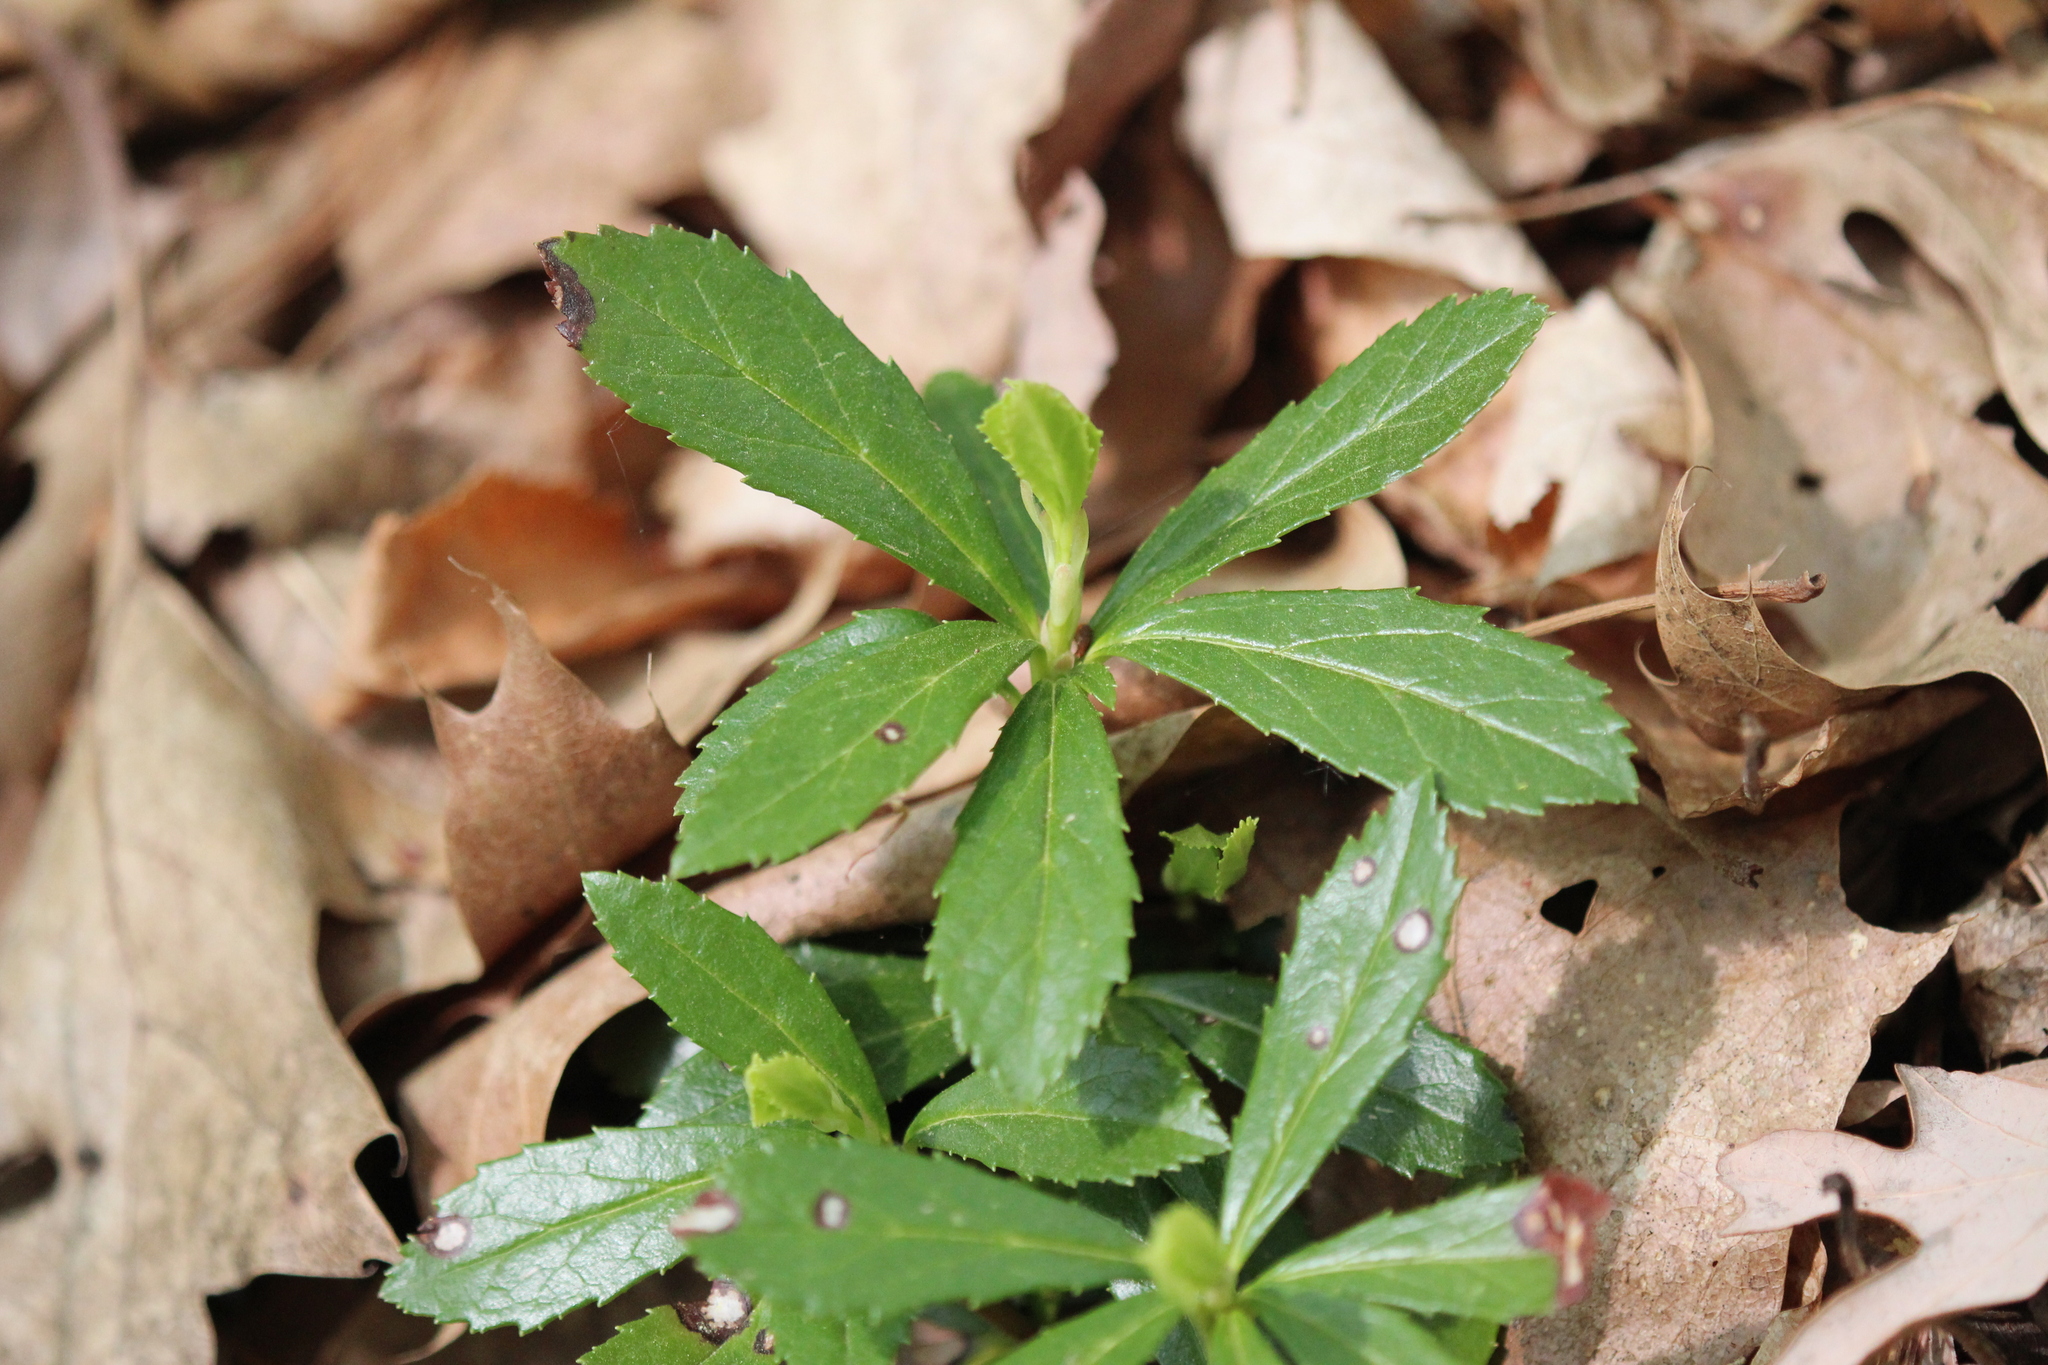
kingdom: Plantae
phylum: Tracheophyta
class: Magnoliopsida
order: Ericales
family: Ericaceae
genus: Chimaphila
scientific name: Chimaphila umbellata
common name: Pipsissewa
